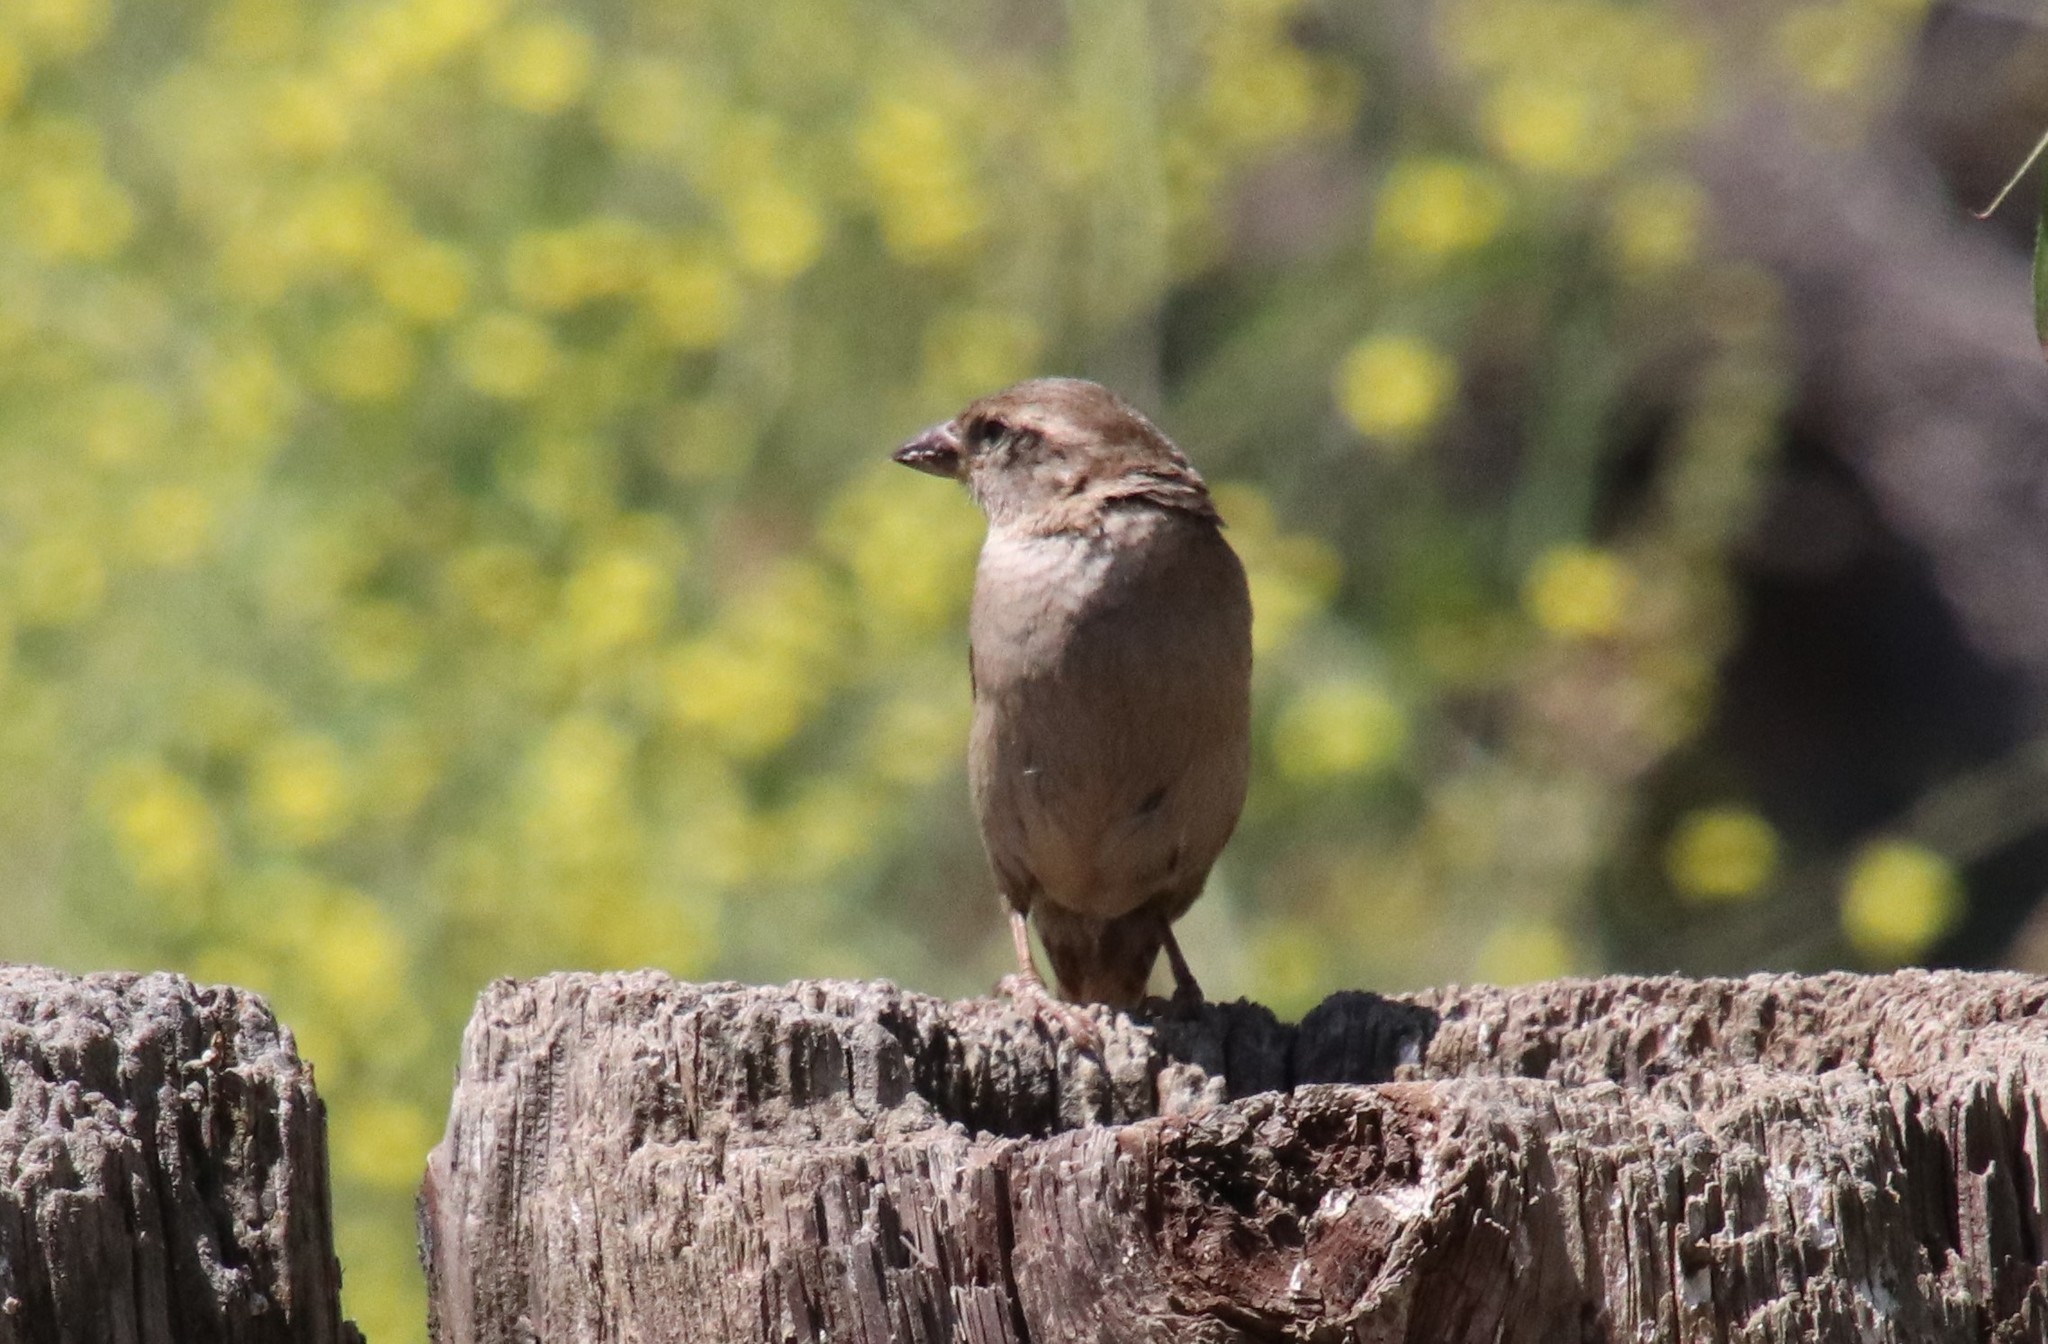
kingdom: Animalia
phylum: Chordata
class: Aves
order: Passeriformes
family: Passeridae
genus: Passer
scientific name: Passer domesticus
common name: House sparrow
